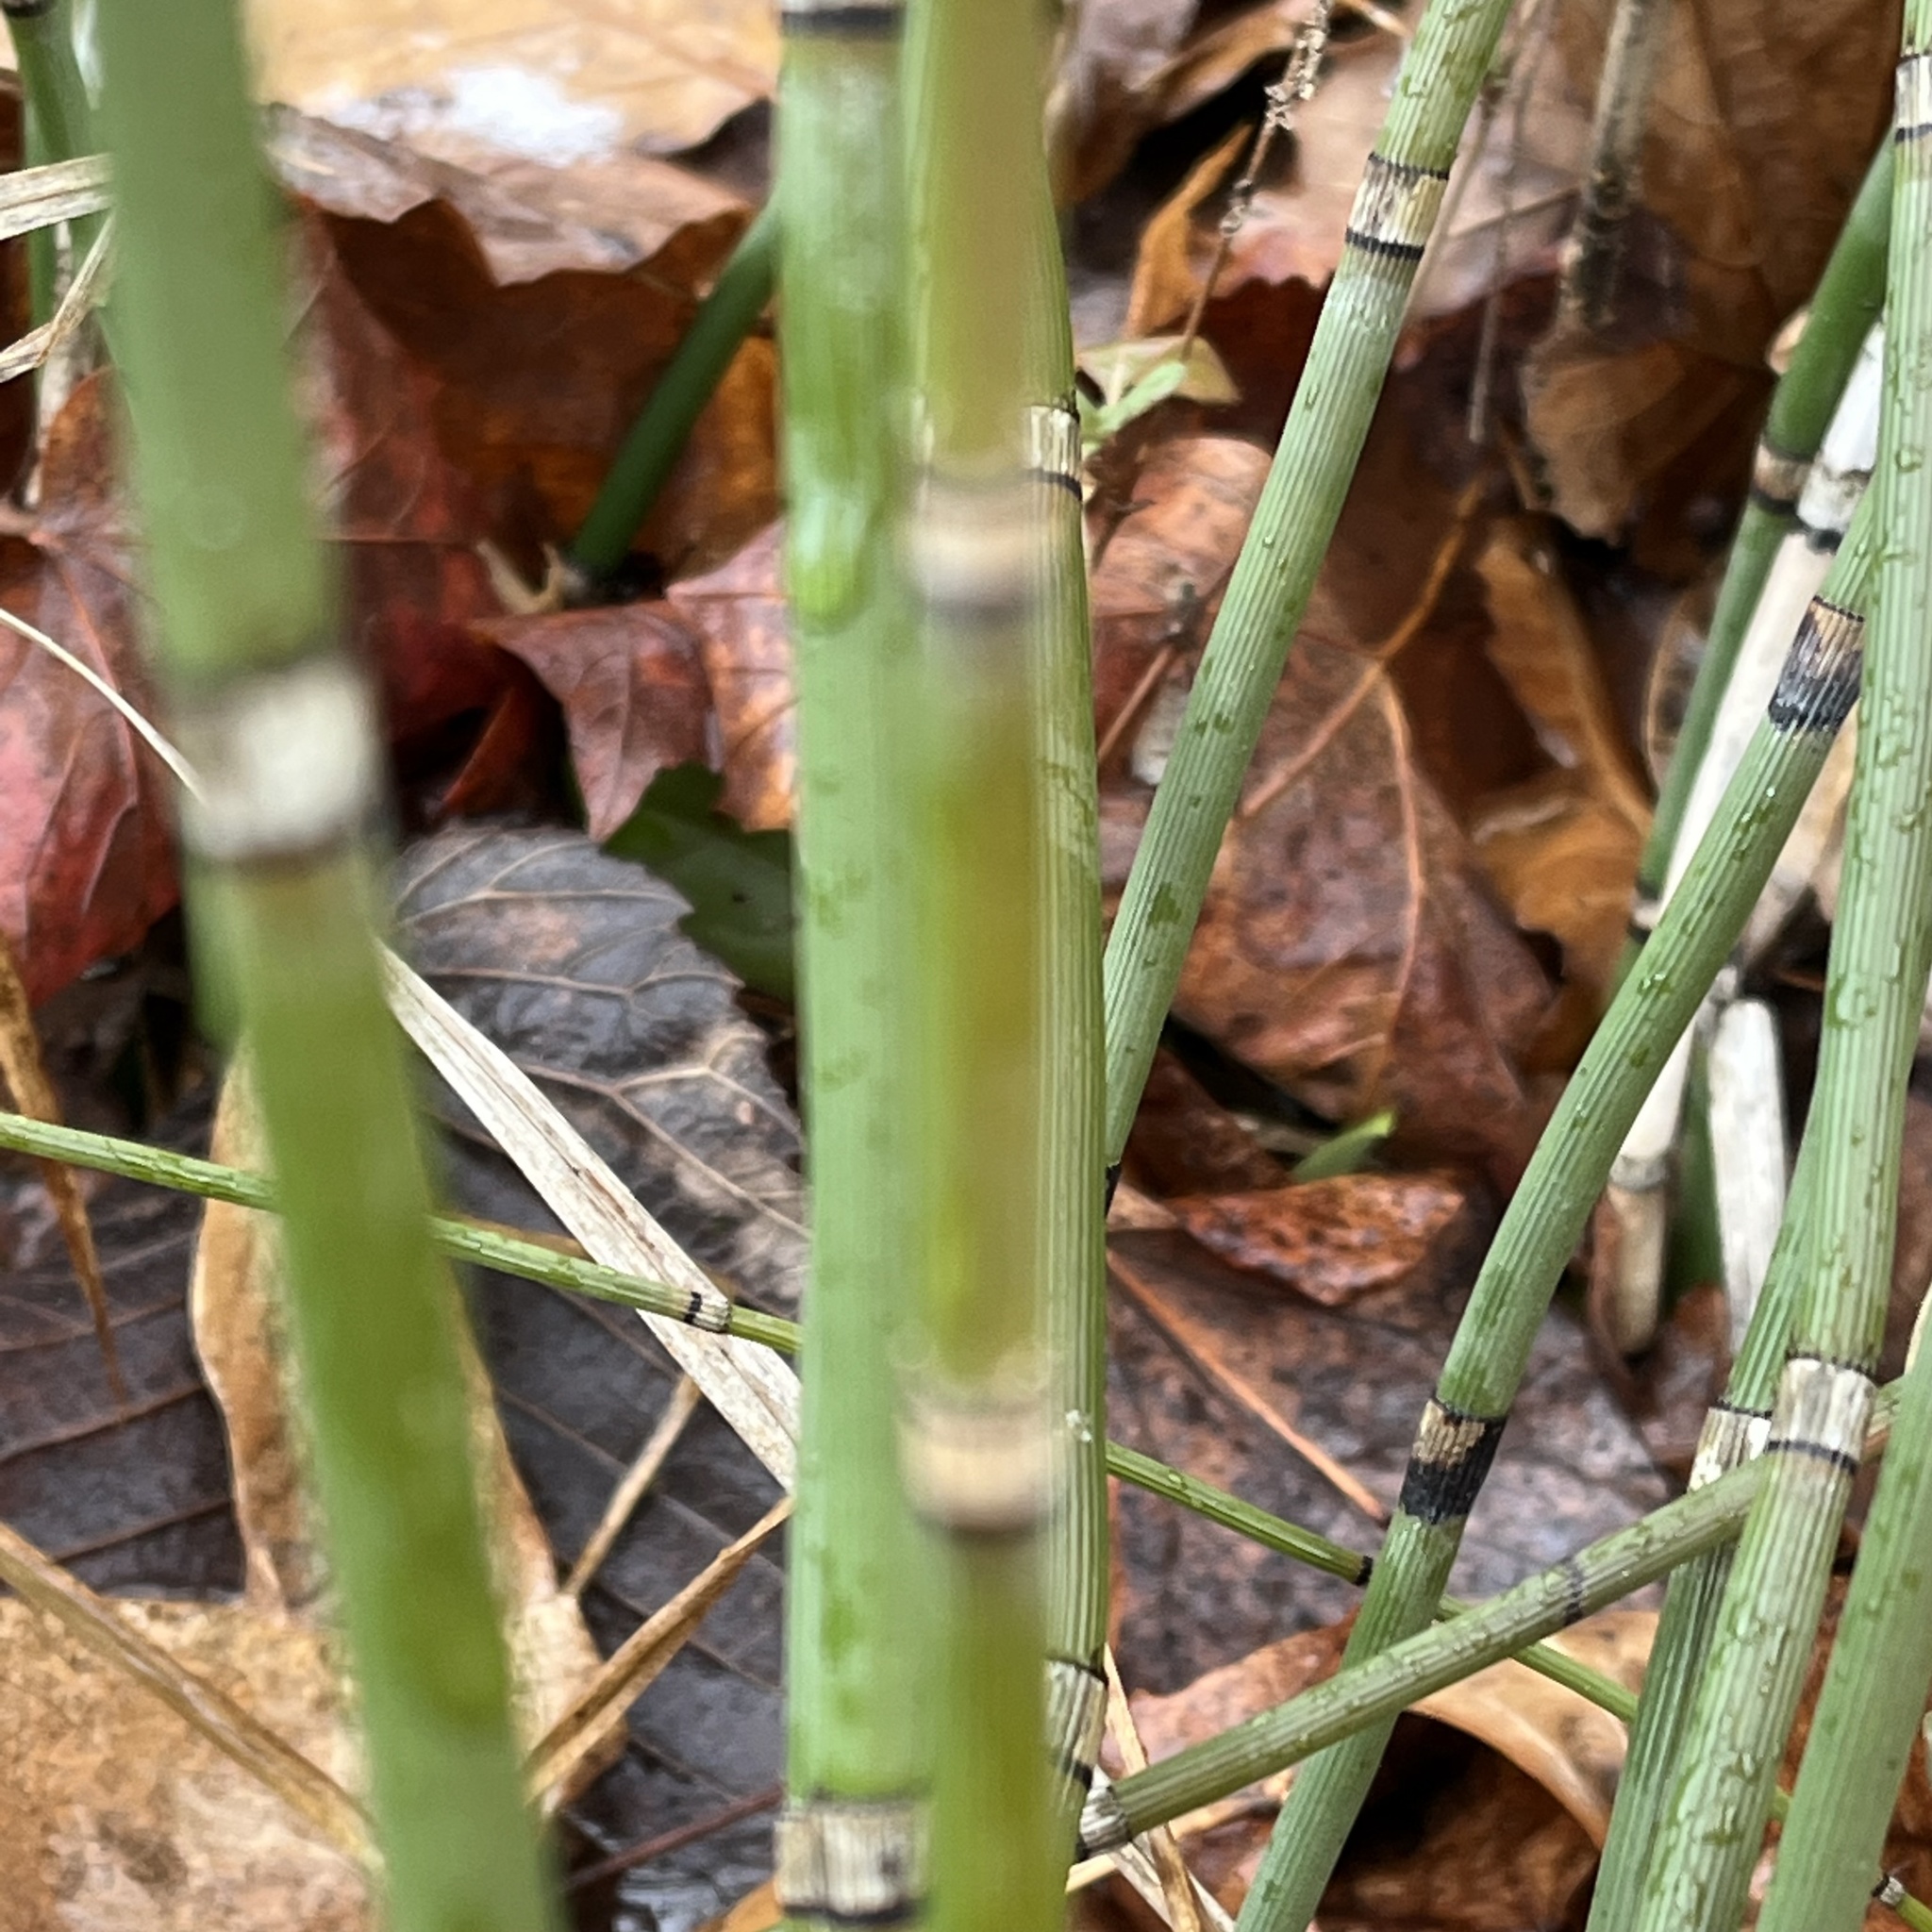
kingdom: Plantae
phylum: Tracheophyta
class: Polypodiopsida
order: Equisetales
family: Equisetaceae
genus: Equisetum
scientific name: Equisetum hyemale
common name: Rough horsetail
